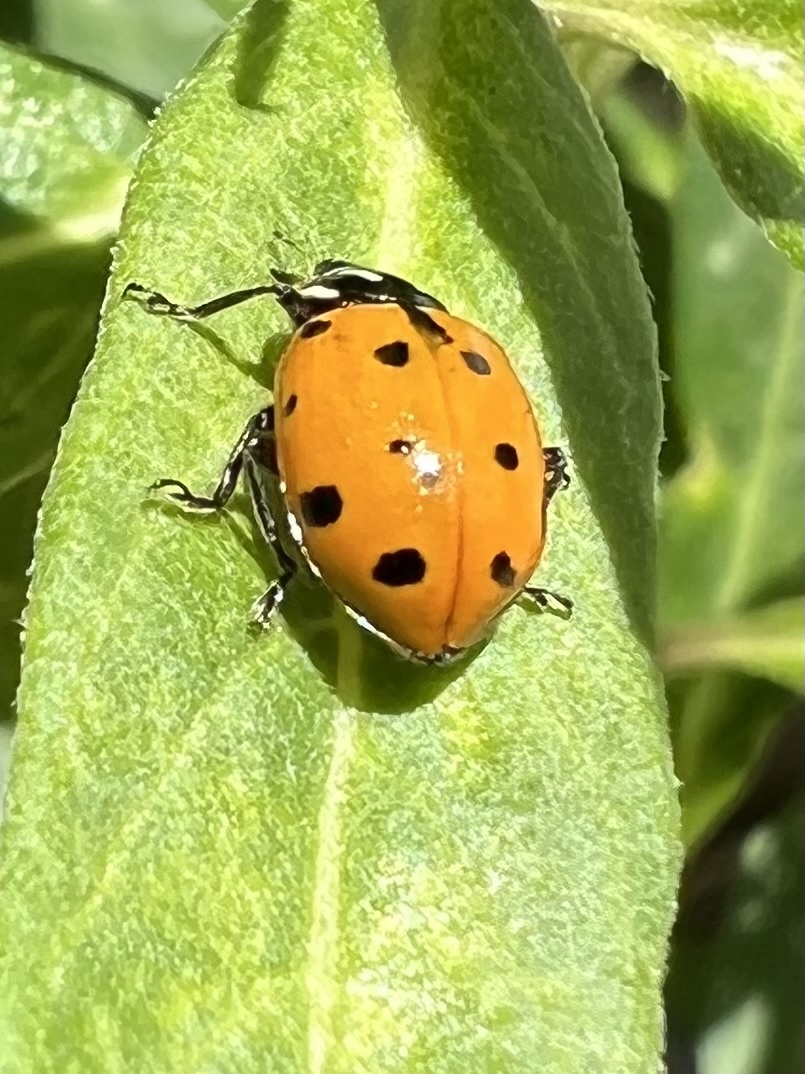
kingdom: Animalia
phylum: Arthropoda
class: Insecta
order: Coleoptera
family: Coccinellidae
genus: Hippodamia
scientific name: Hippodamia convergens
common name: Convergent lady beetle
